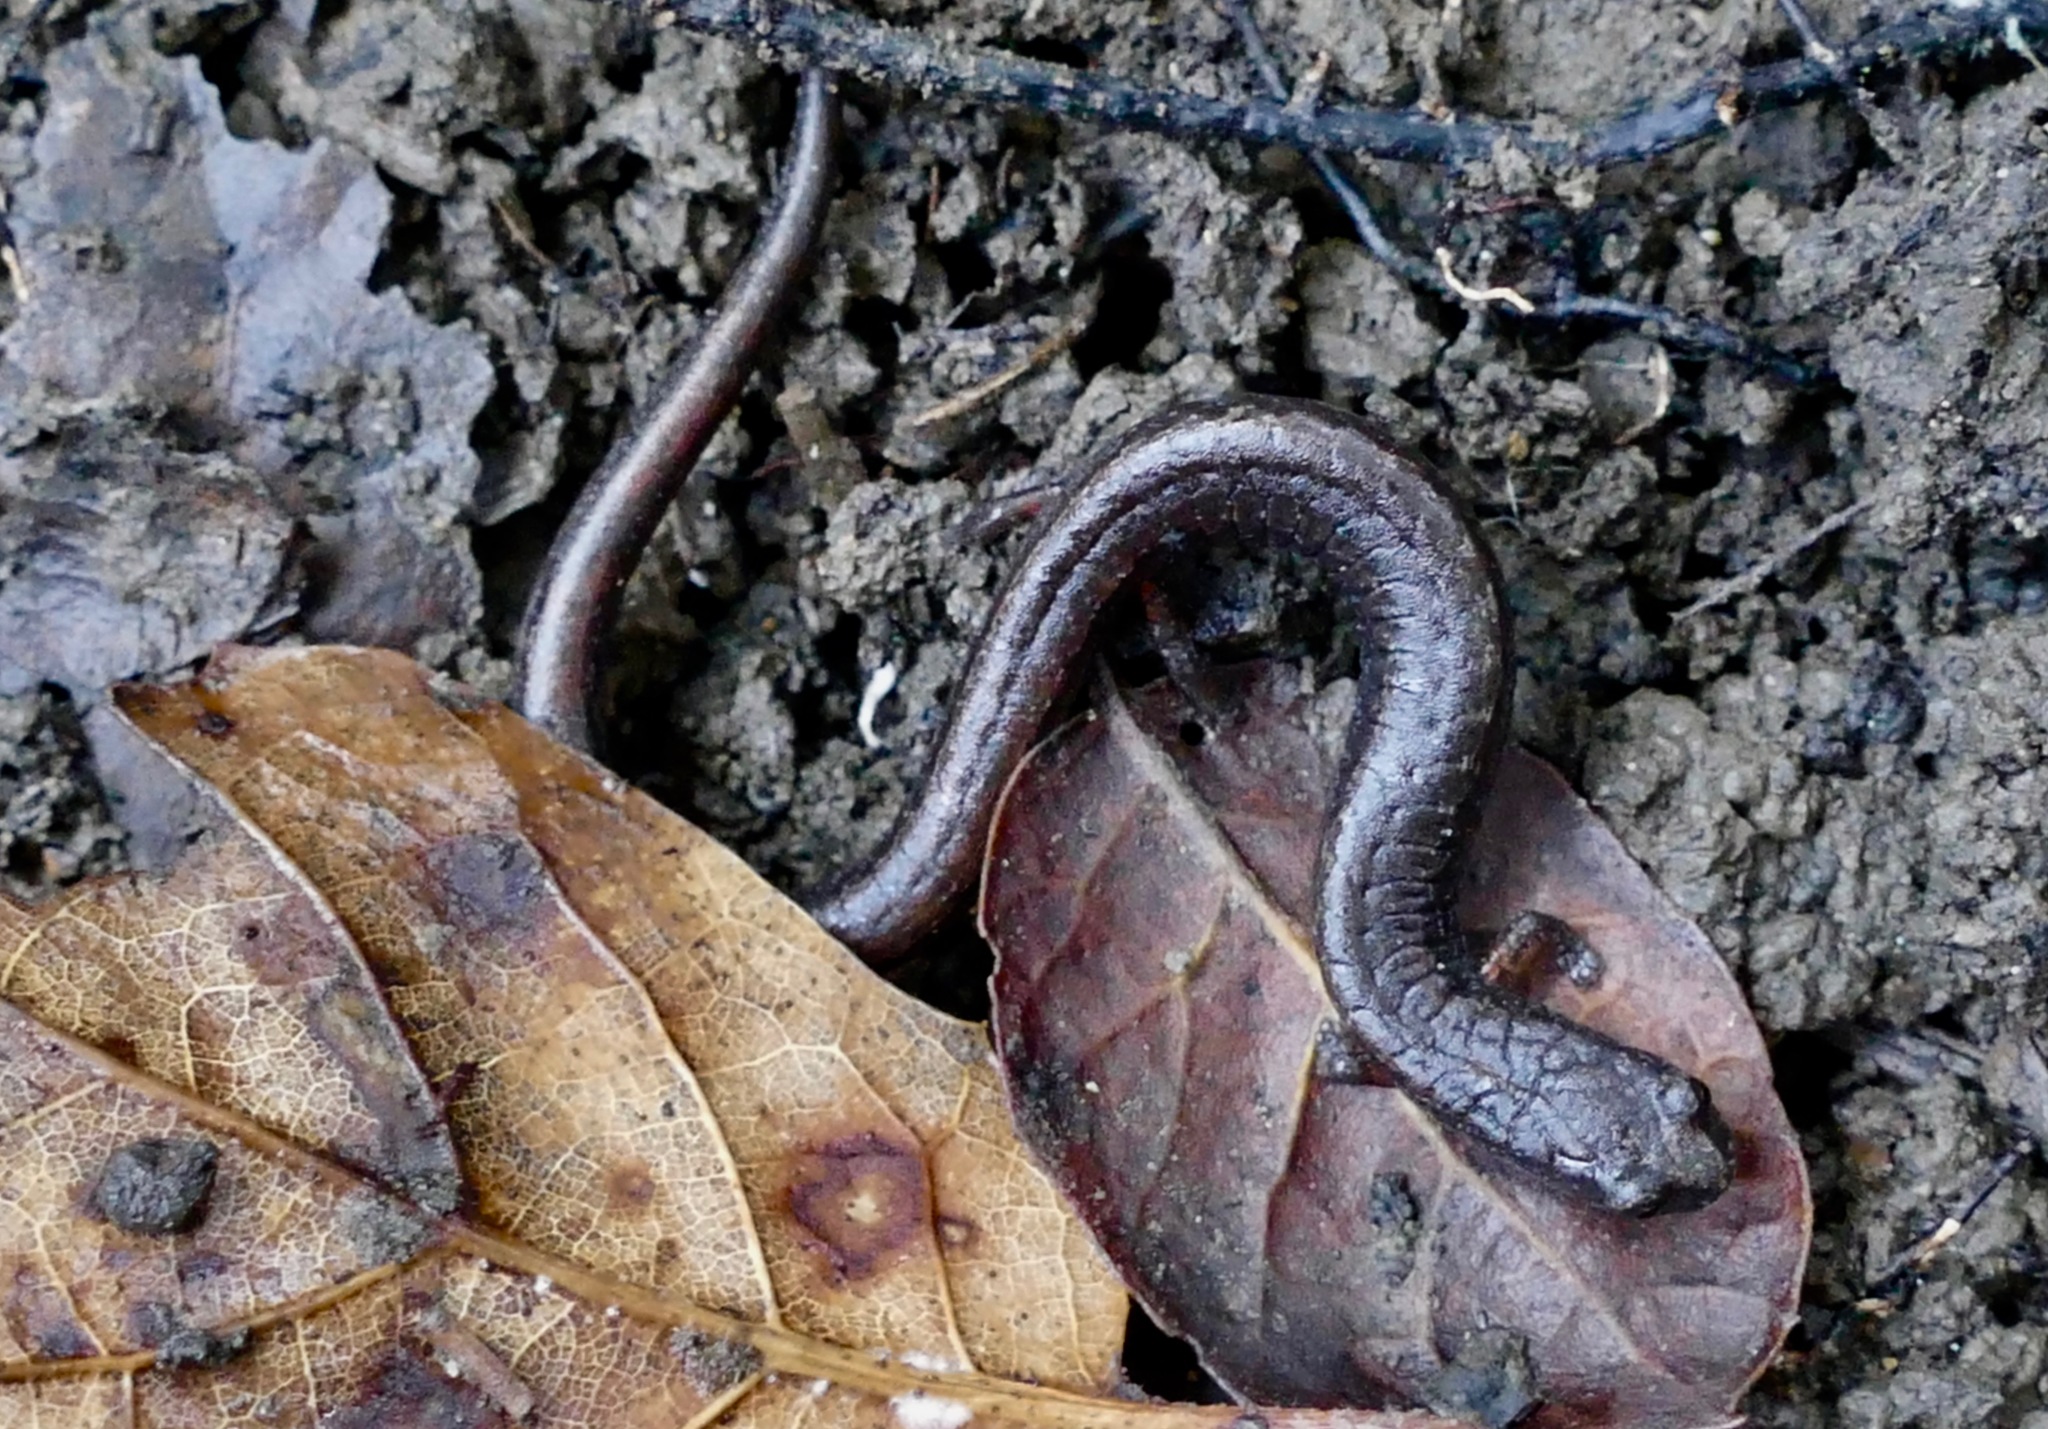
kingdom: Animalia
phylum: Chordata
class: Amphibia
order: Caudata
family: Plethodontidae
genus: Batrachoseps
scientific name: Batrachoseps attenuatus
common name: California slender salamander
